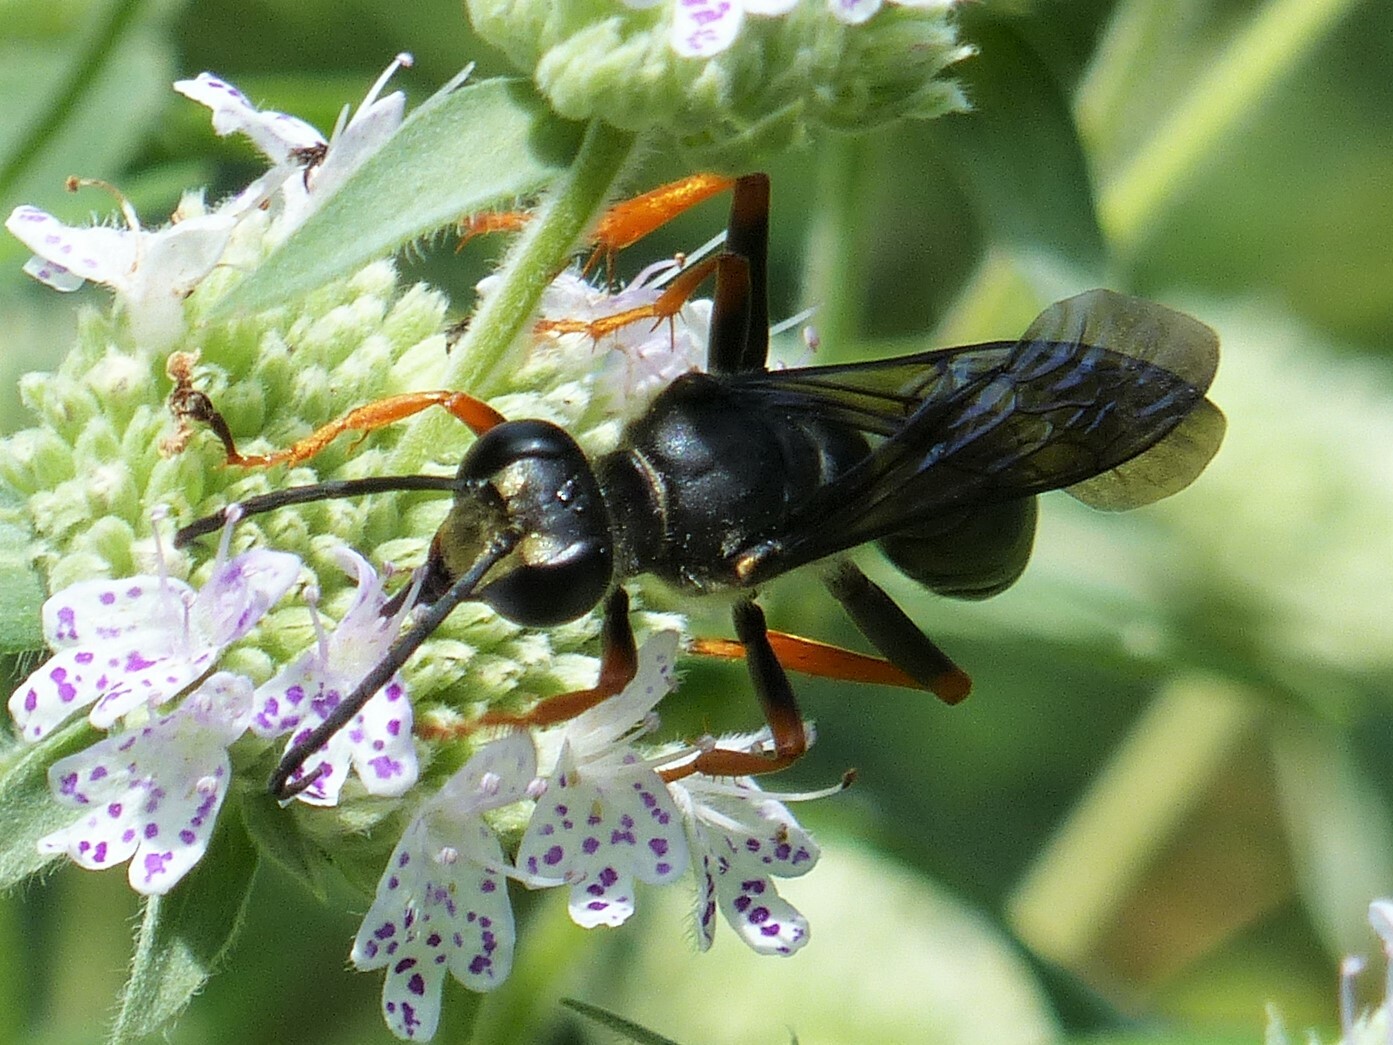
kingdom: Animalia
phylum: Arthropoda
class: Insecta
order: Hymenoptera
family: Sphecidae
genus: Sphex
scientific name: Sphex nudus
